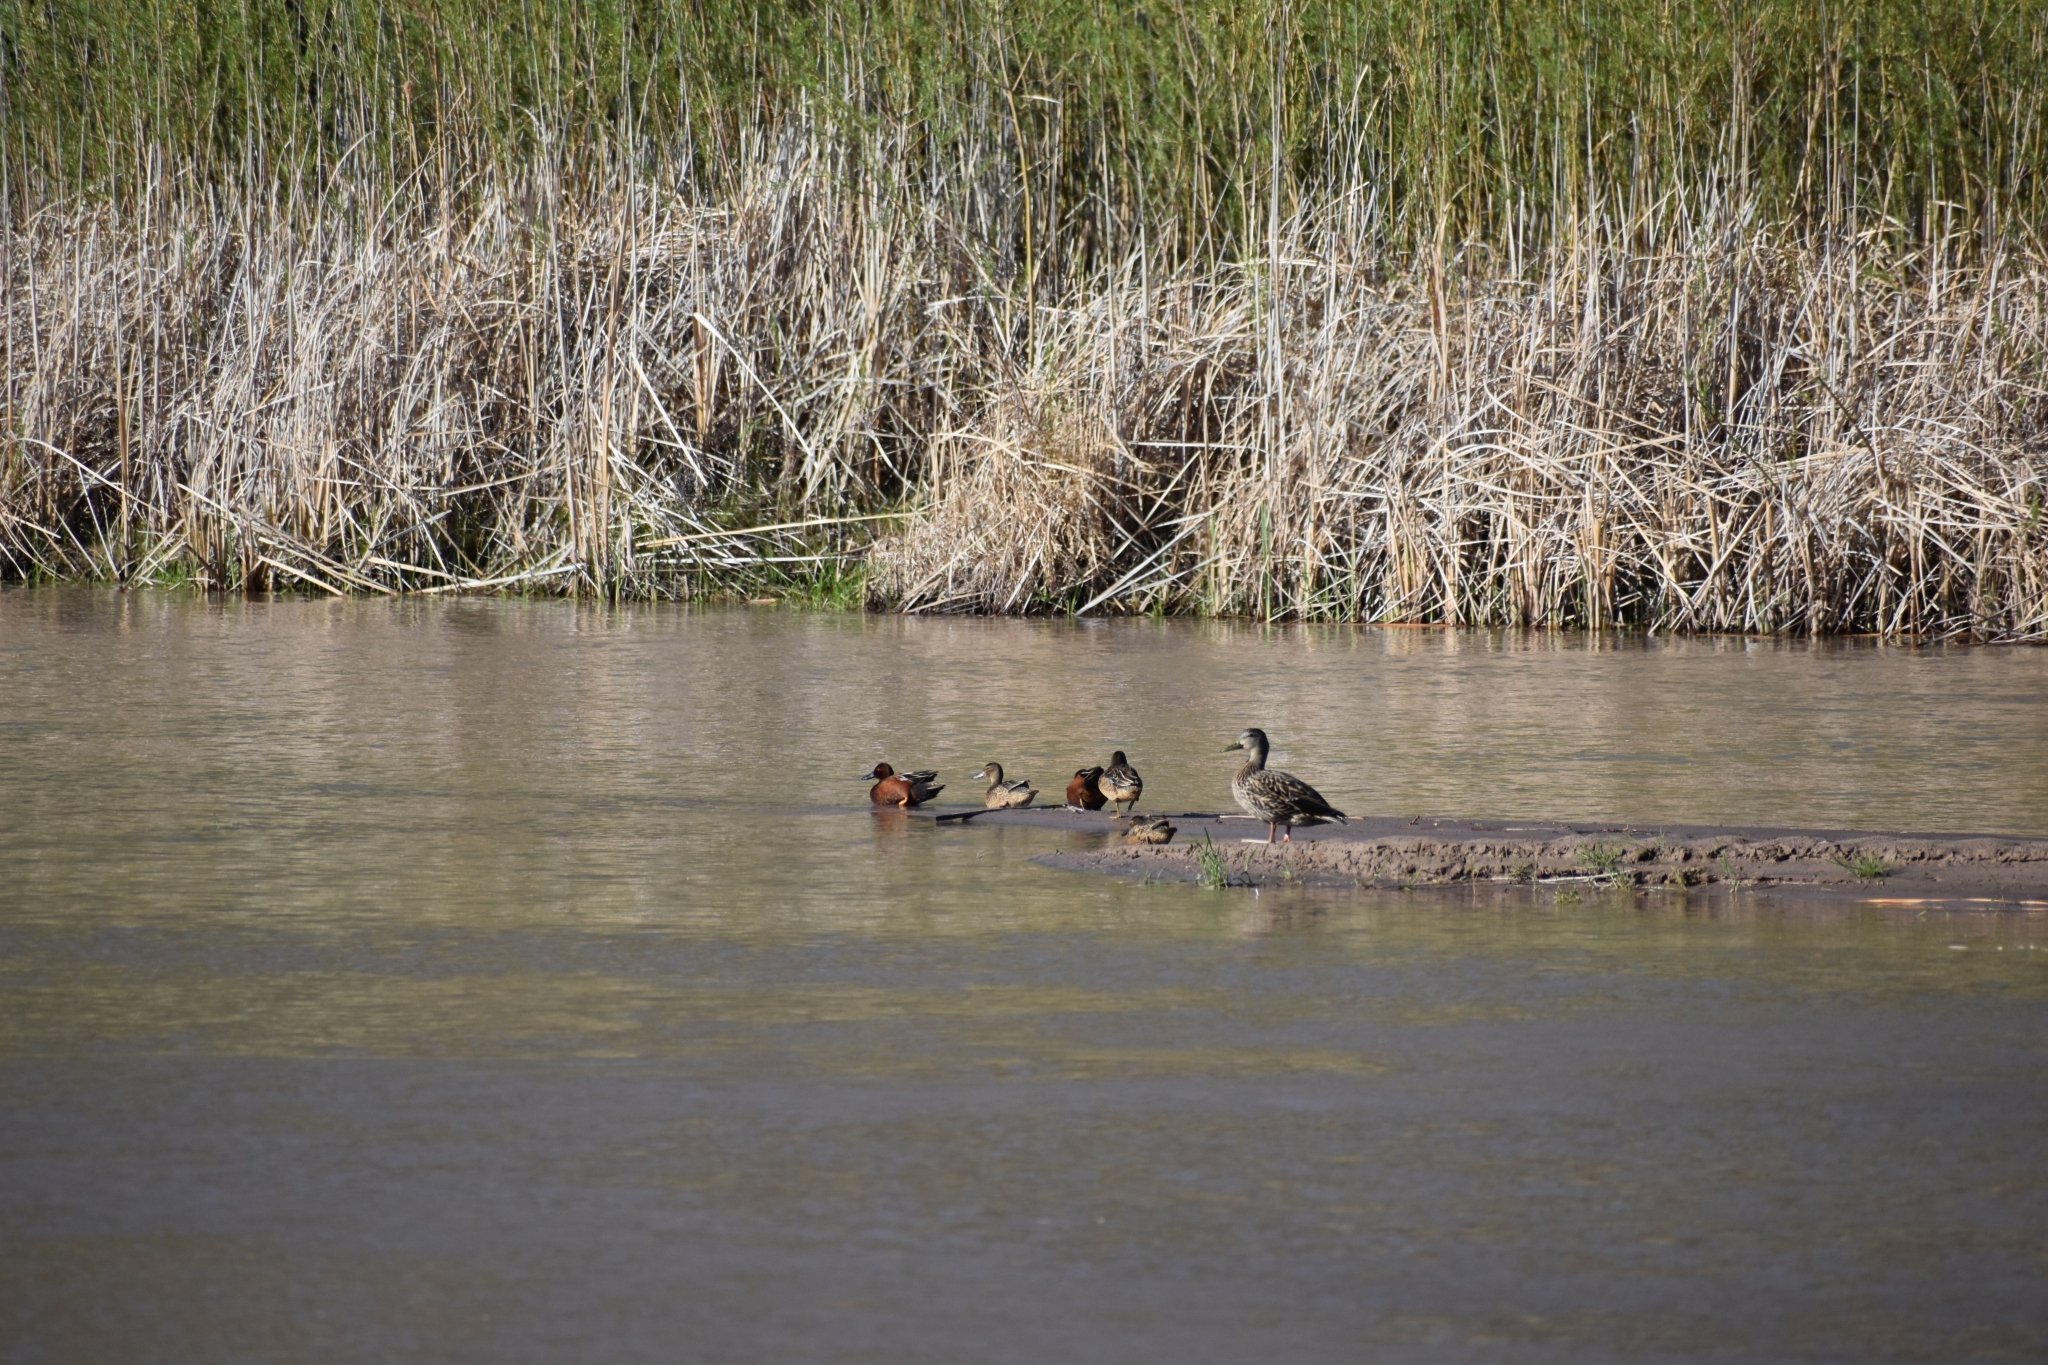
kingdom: Animalia
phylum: Chordata
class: Aves
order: Anseriformes
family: Anatidae
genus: Spatula
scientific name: Spatula cyanoptera
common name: Cinnamon teal
